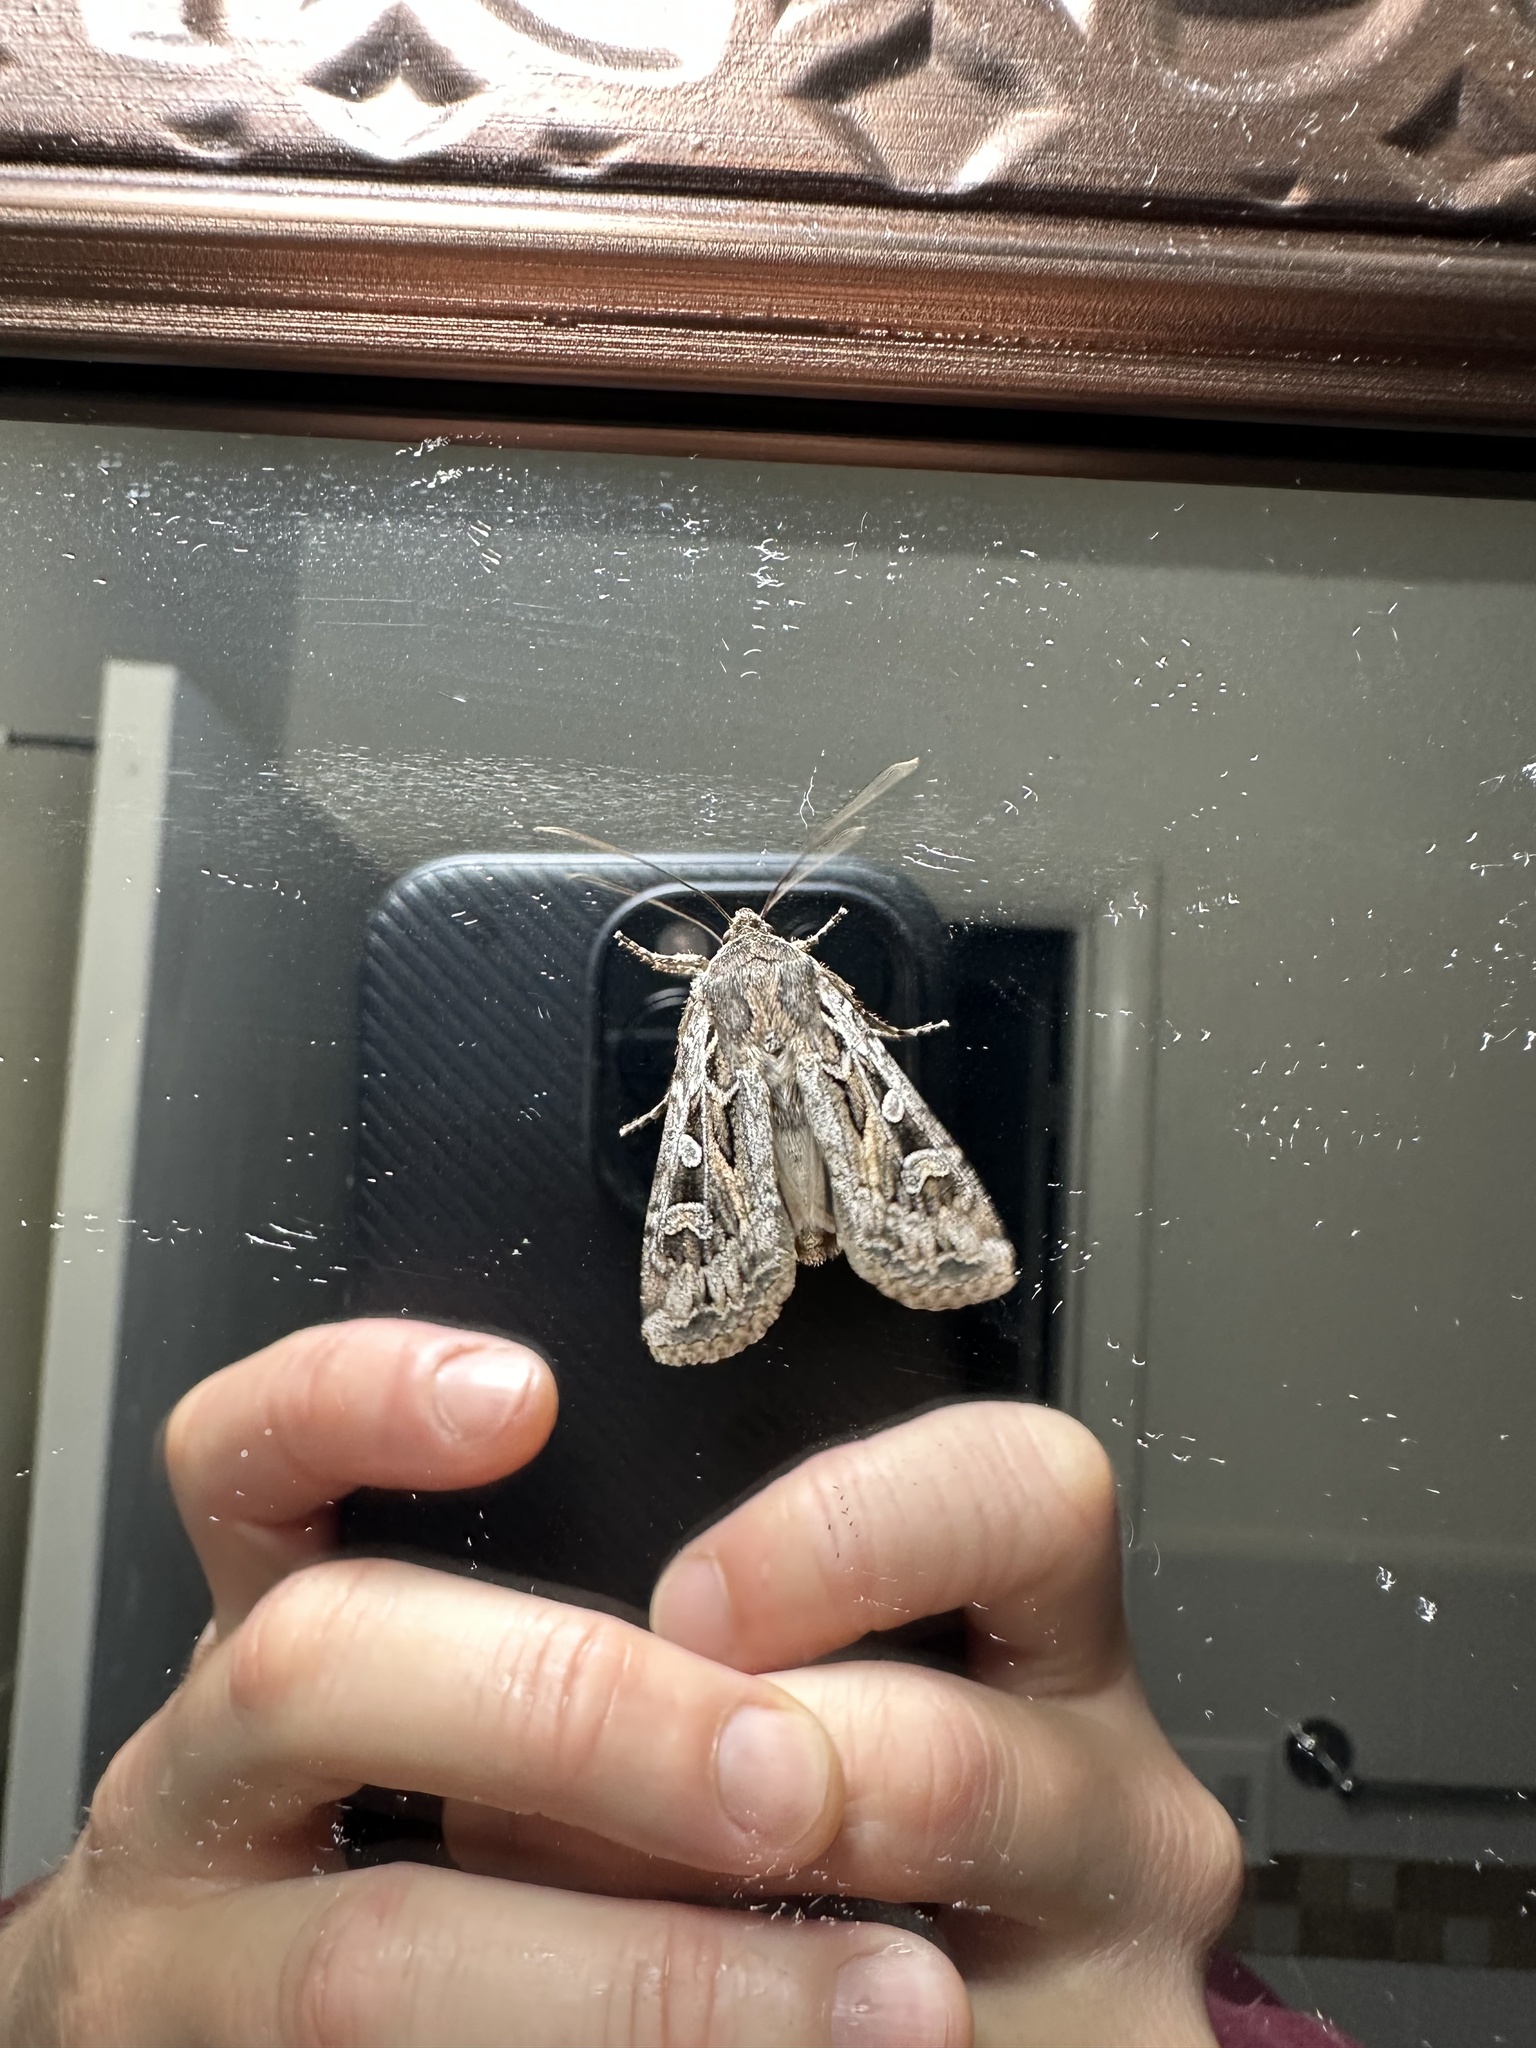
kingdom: Animalia
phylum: Arthropoda
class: Insecta
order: Lepidoptera
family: Noctuidae
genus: Euxoa
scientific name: Euxoa auxiliaris
